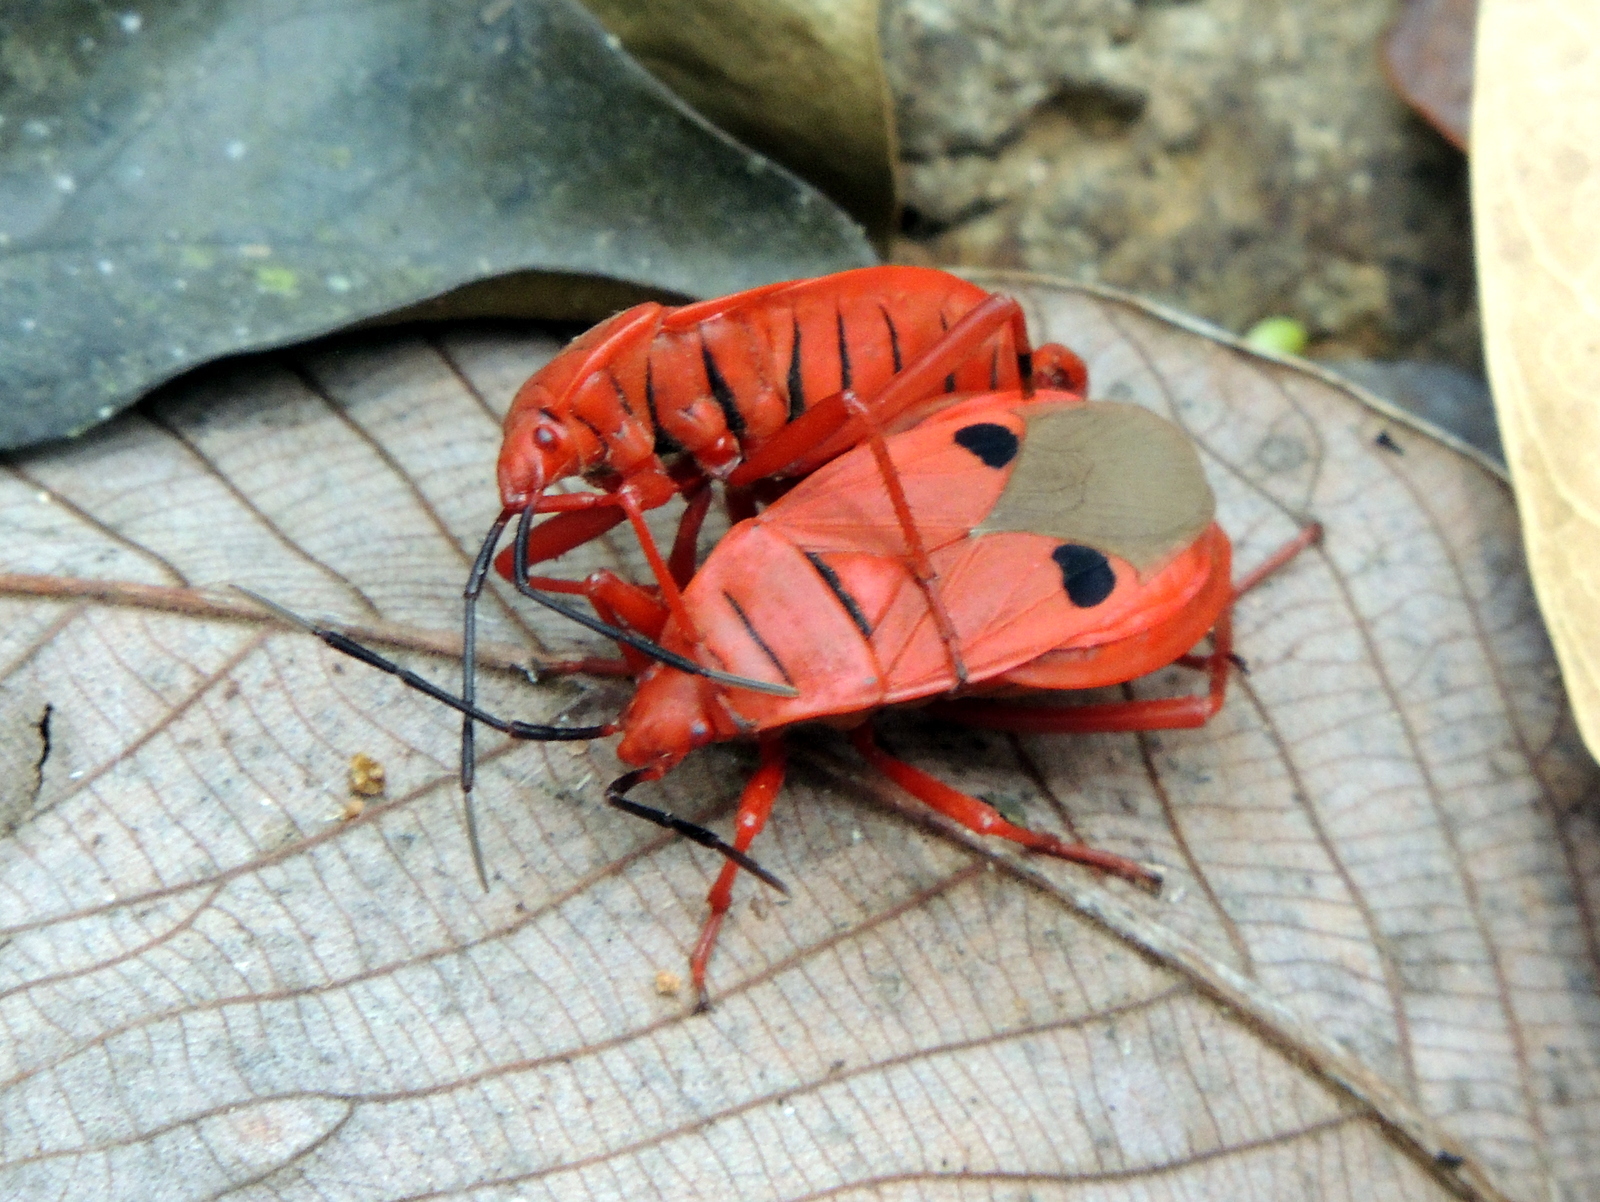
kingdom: Animalia
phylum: Arthropoda
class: Insecta
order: Hemiptera
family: Pyrrhocoridae
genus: Probergrothius
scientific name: Probergrothius nigricornis
